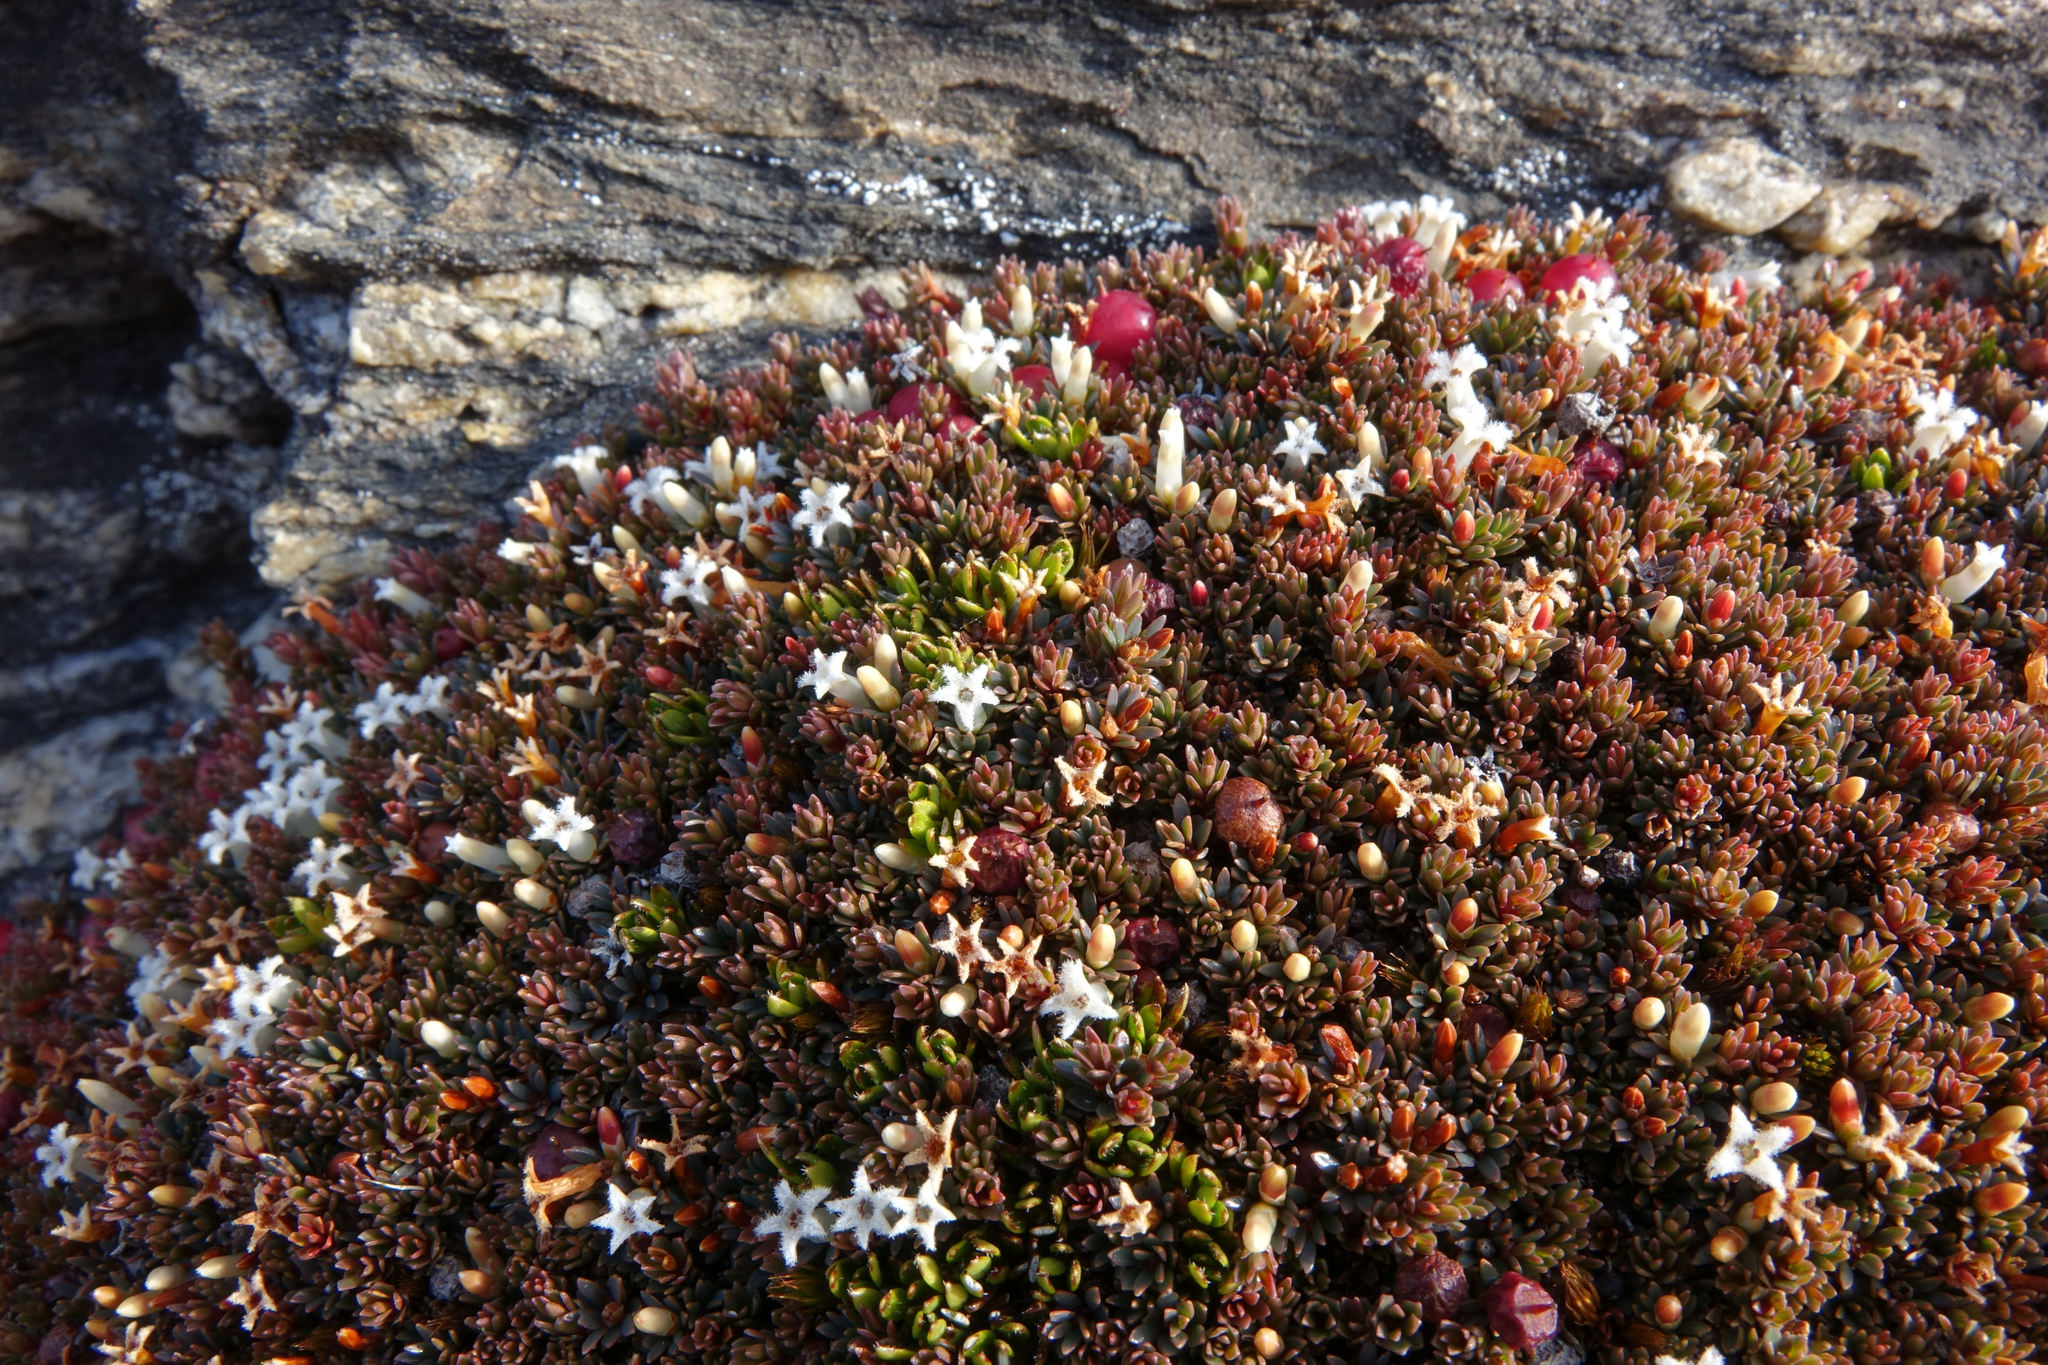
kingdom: Plantae
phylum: Tracheophyta
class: Magnoliopsida
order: Ericales
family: Ericaceae
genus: Pentachondra
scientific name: Pentachondra pumila
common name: Carpet-heath
